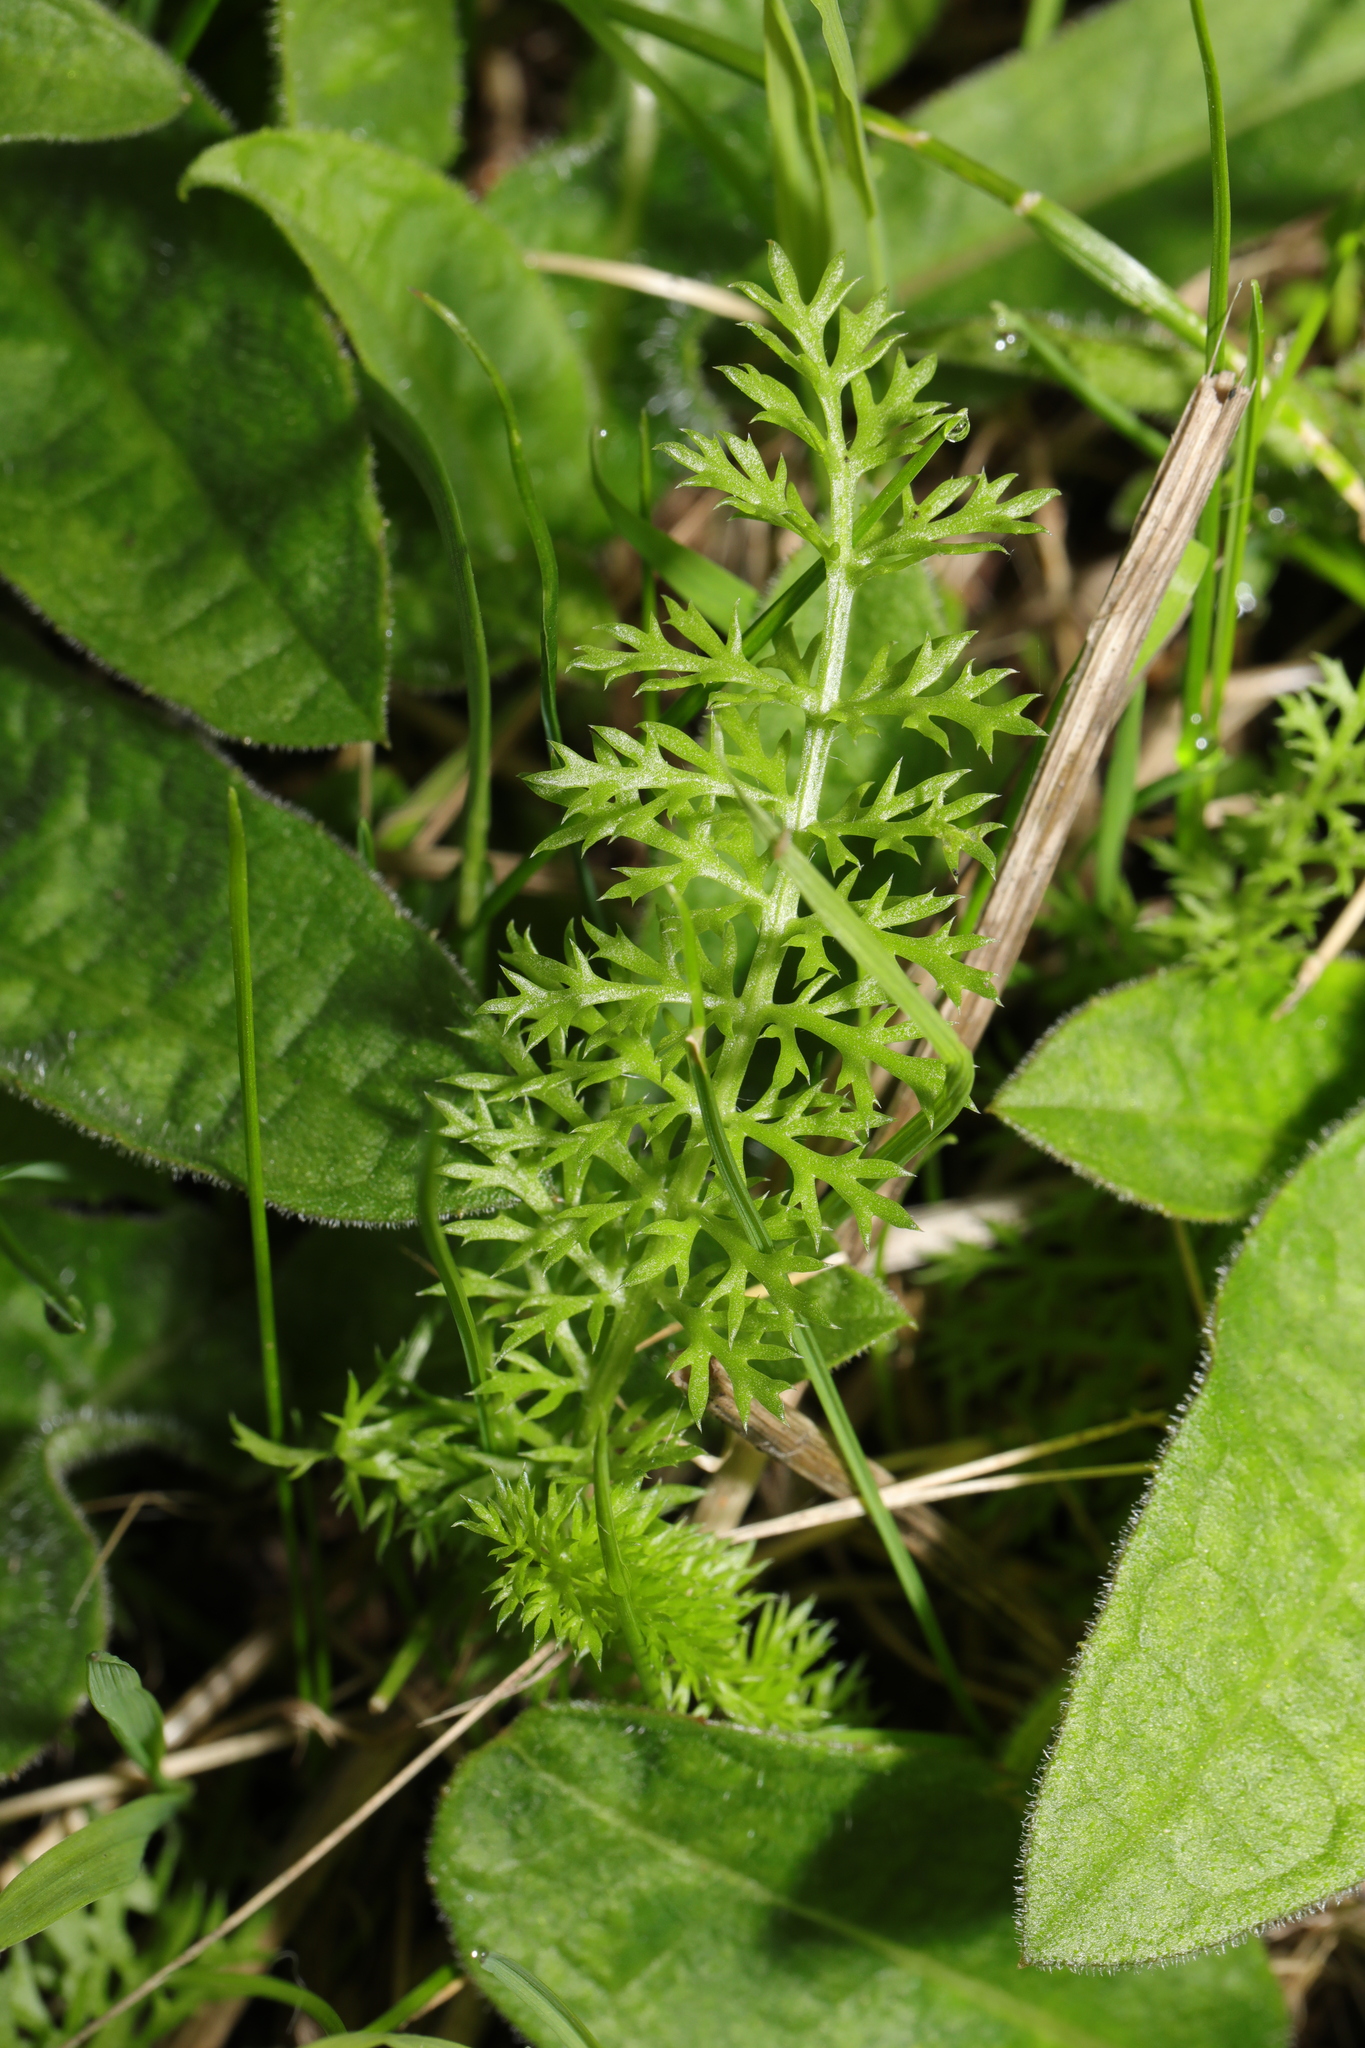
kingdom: Plantae
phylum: Tracheophyta
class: Magnoliopsida
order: Asterales
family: Asteraceae
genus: Achillea
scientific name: Achillea millefolium
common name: Yarrow
